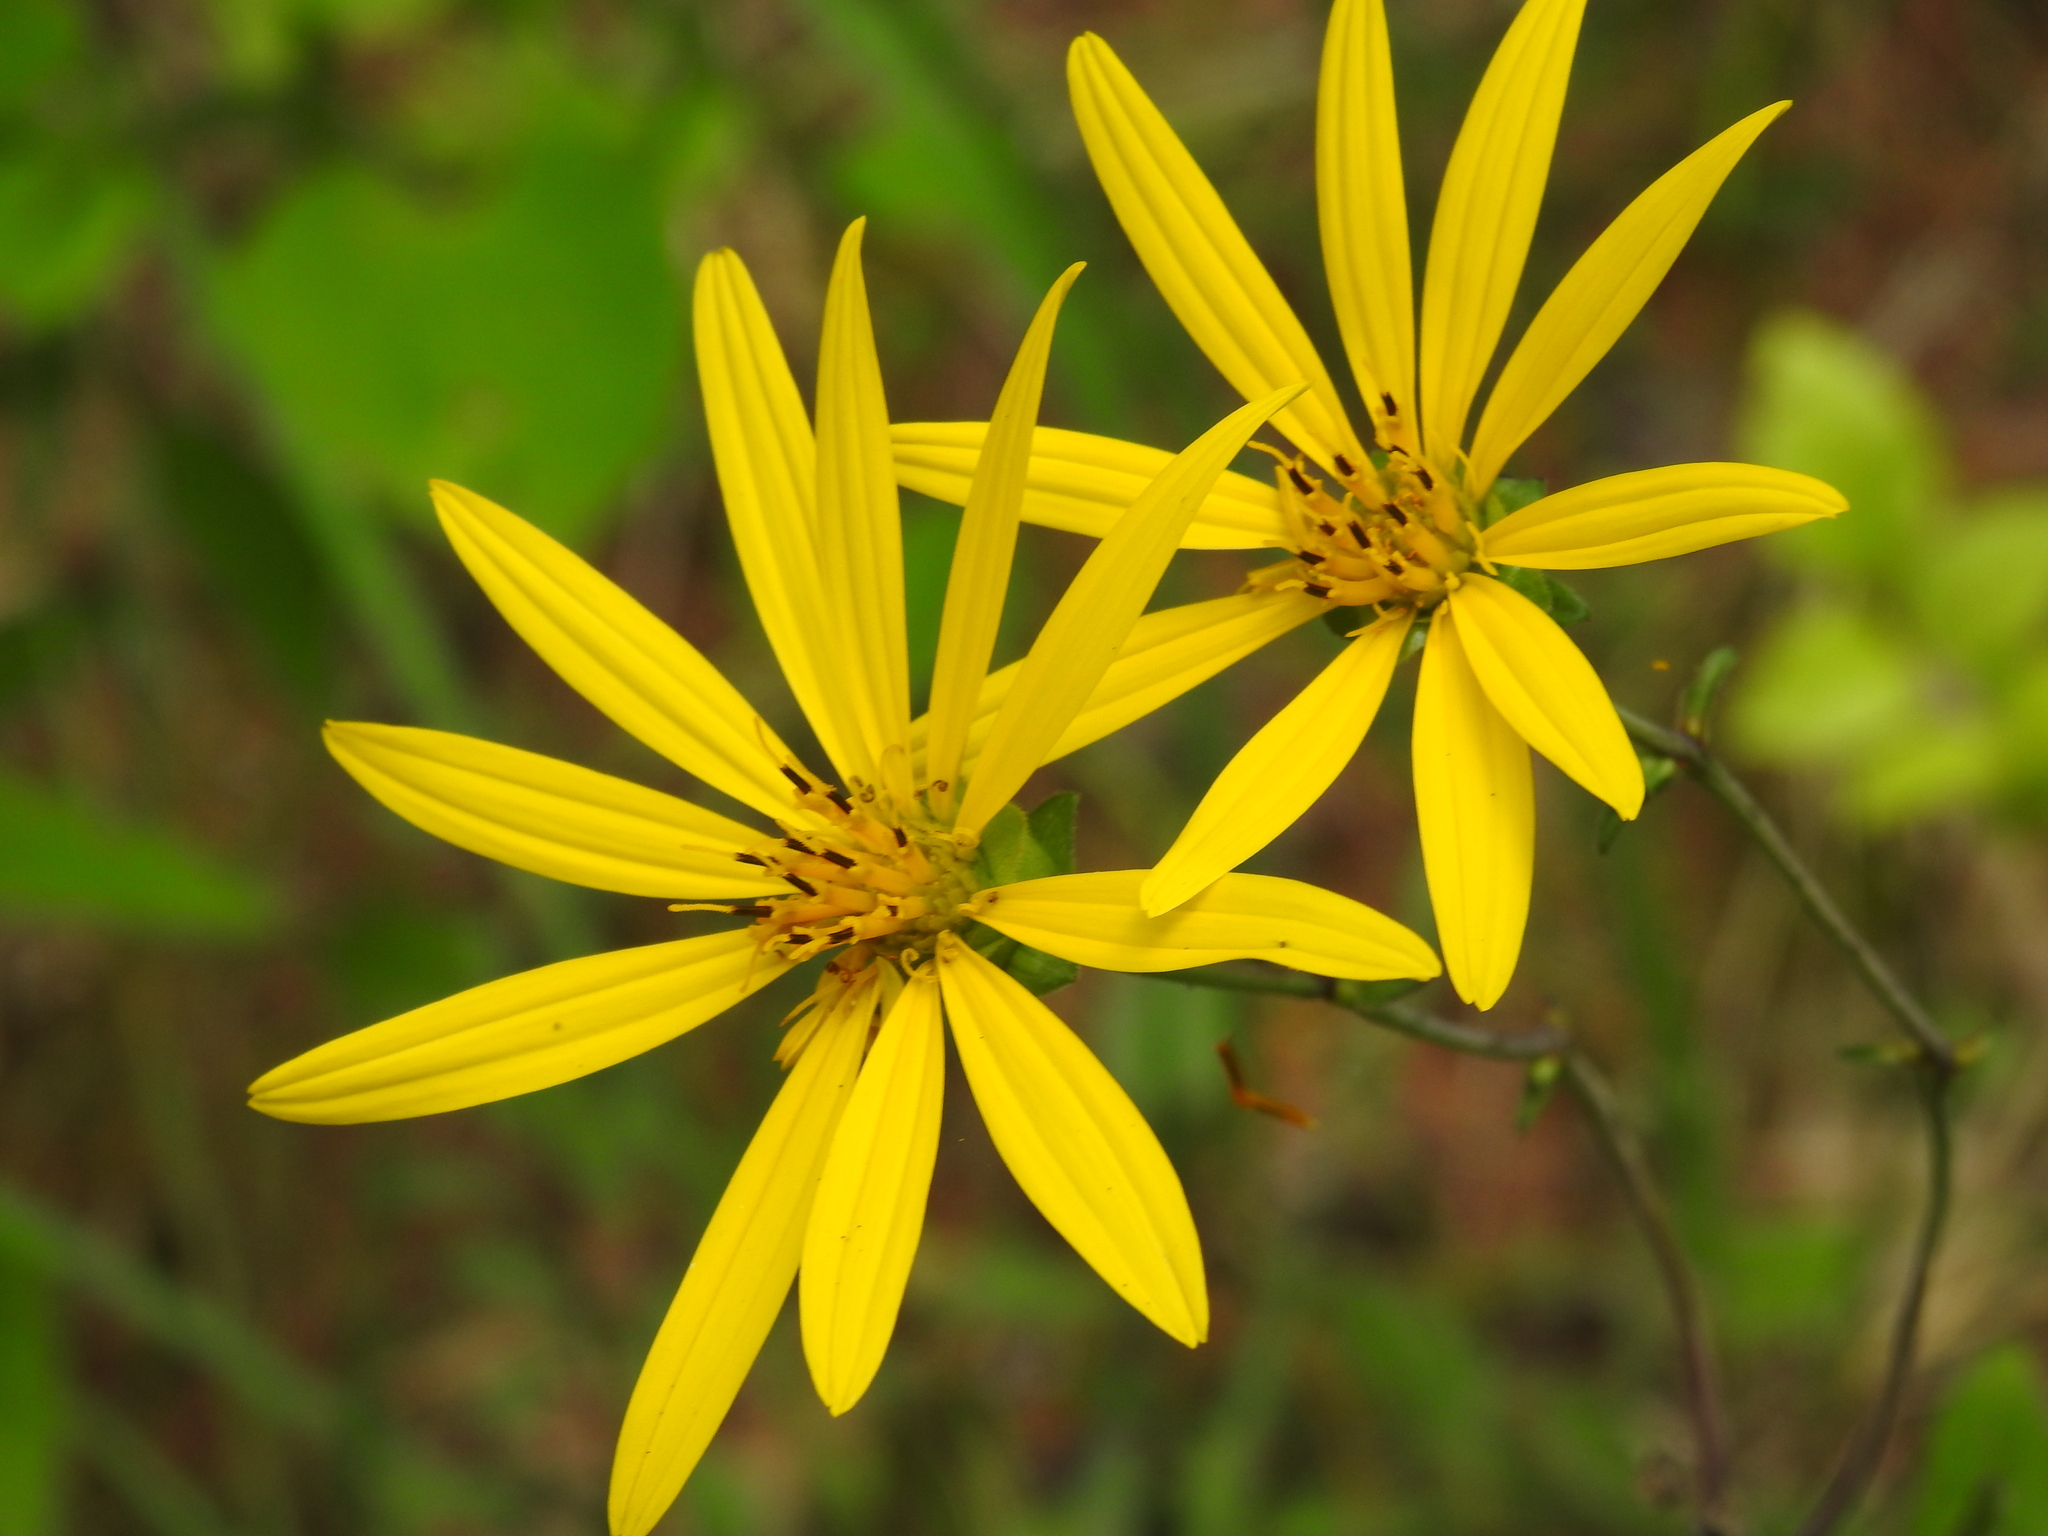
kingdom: Plantae
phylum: Tracheophyta
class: Magnoliopsida
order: Asterales
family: Asteraceae
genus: Silphium
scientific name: Silphium asteriscus
